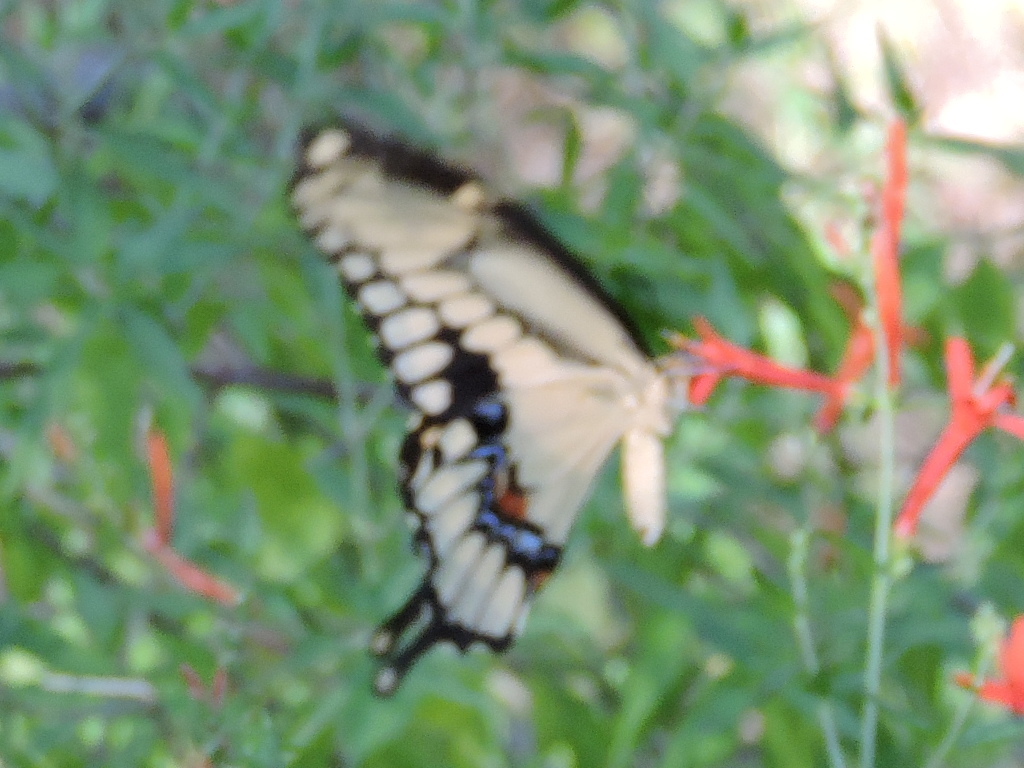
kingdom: Animalia
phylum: Arthropoda
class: Insecta
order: Lepidoptera
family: Papilionidae
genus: Papilio
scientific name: Papilio cresphontes
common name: Giant swallowtail
